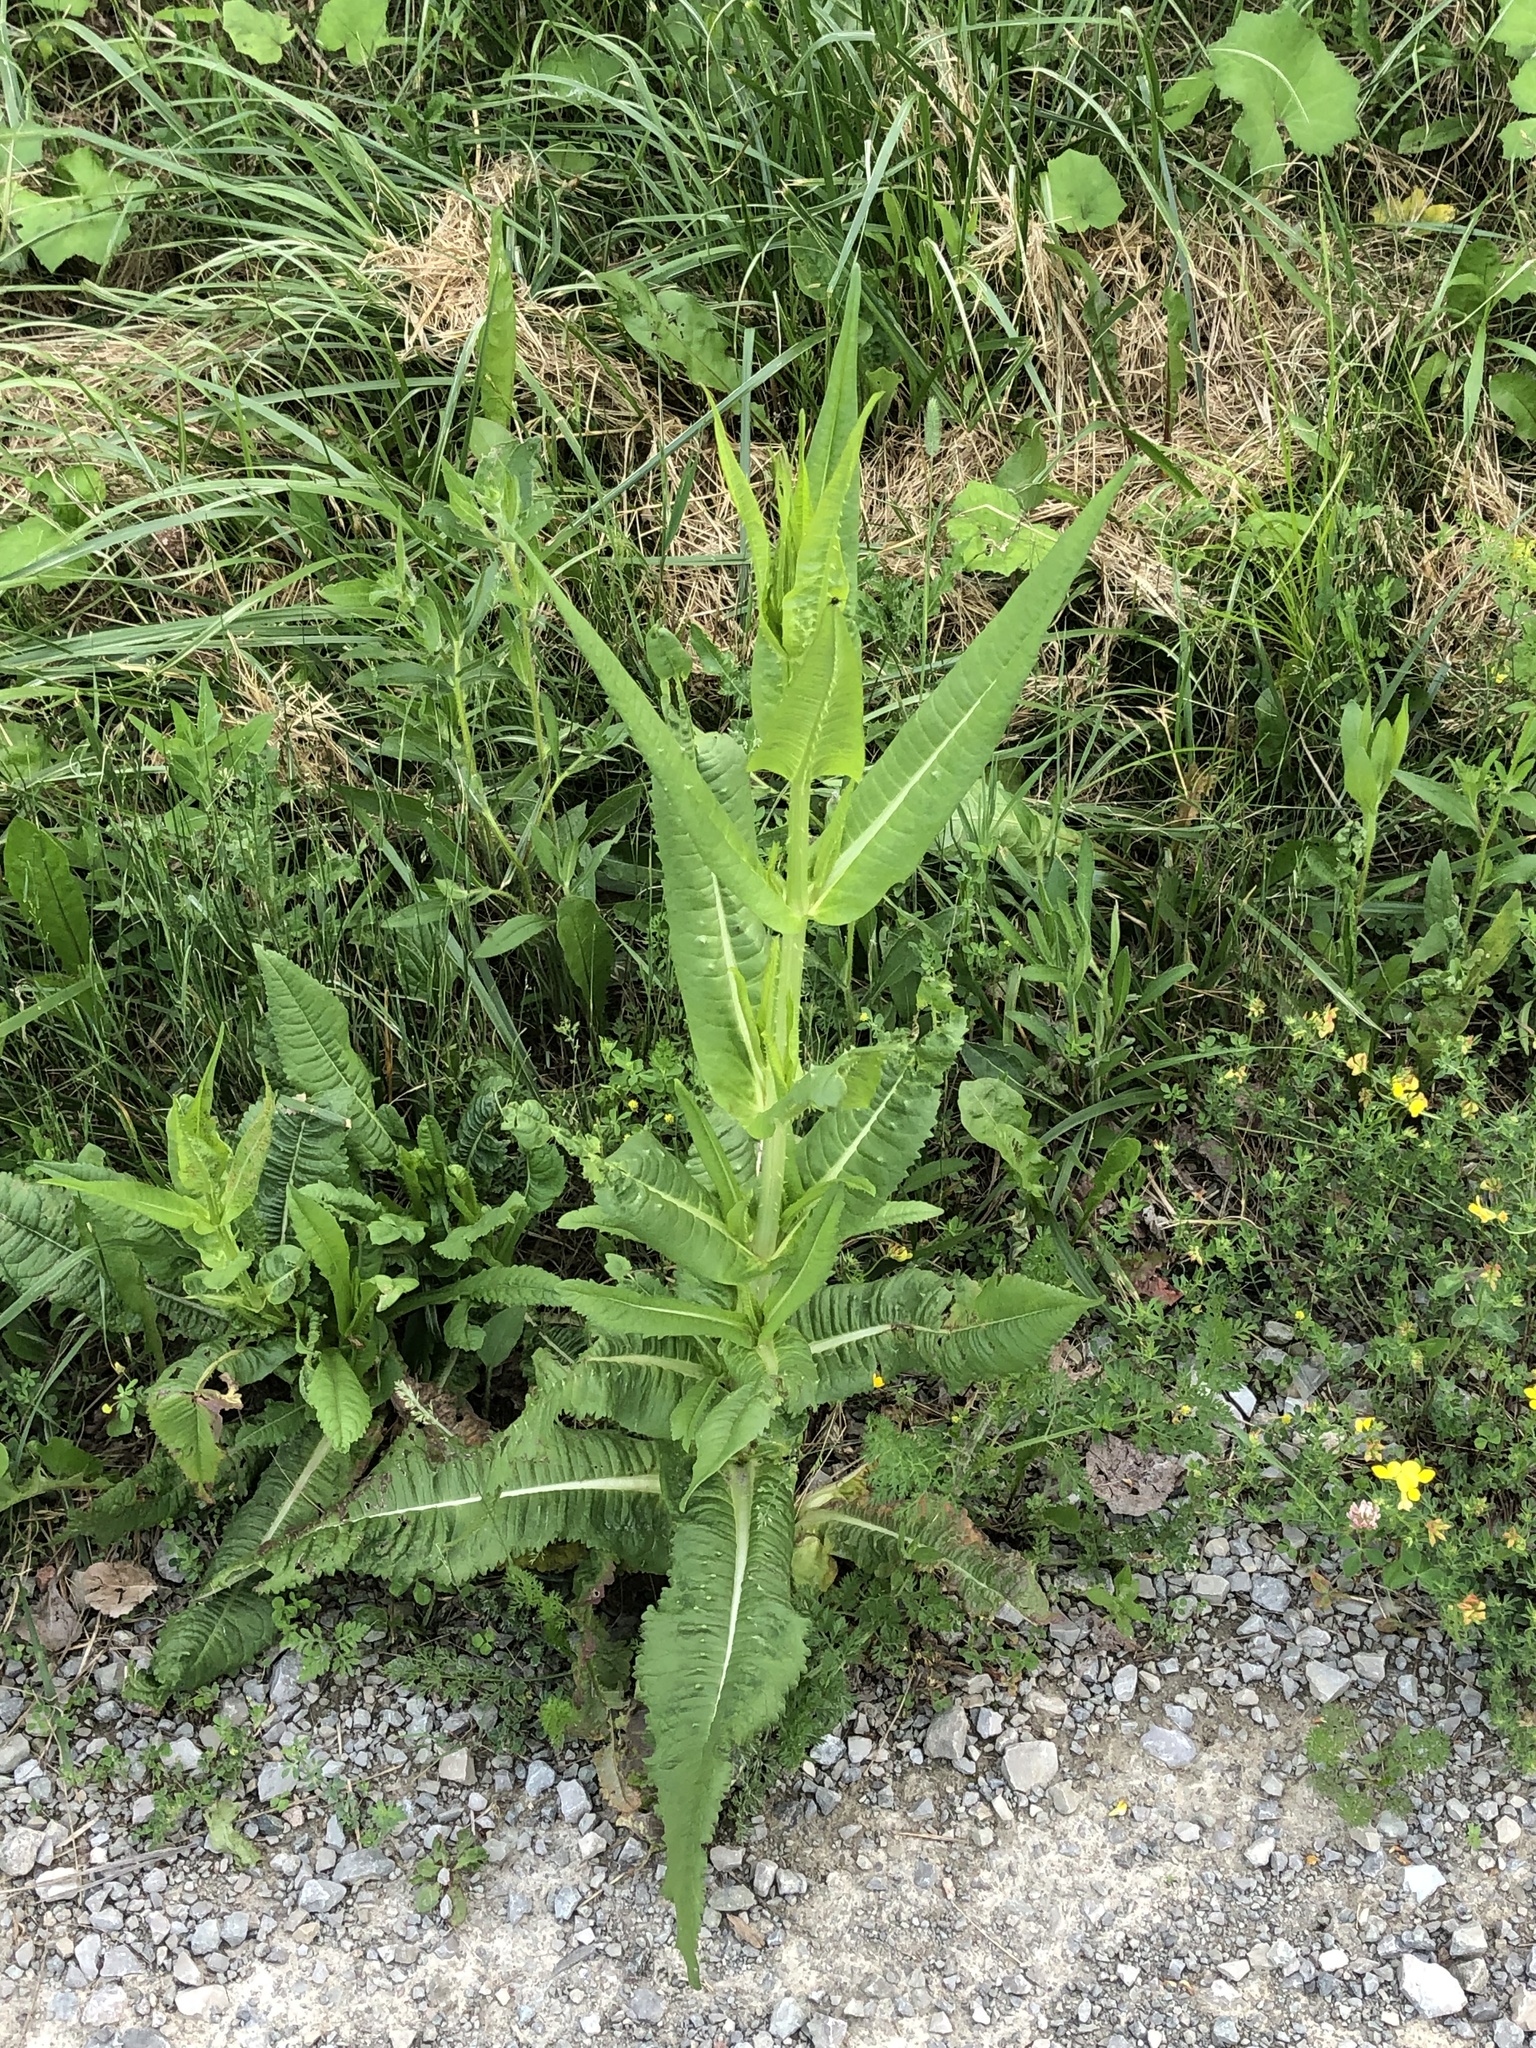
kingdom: Plantae
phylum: Tracheophyta
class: Magnoliopsida
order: Dipsacales
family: Caprifoliaceae
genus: Dipsacus
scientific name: Dipsacus fullonum
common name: Teasel
